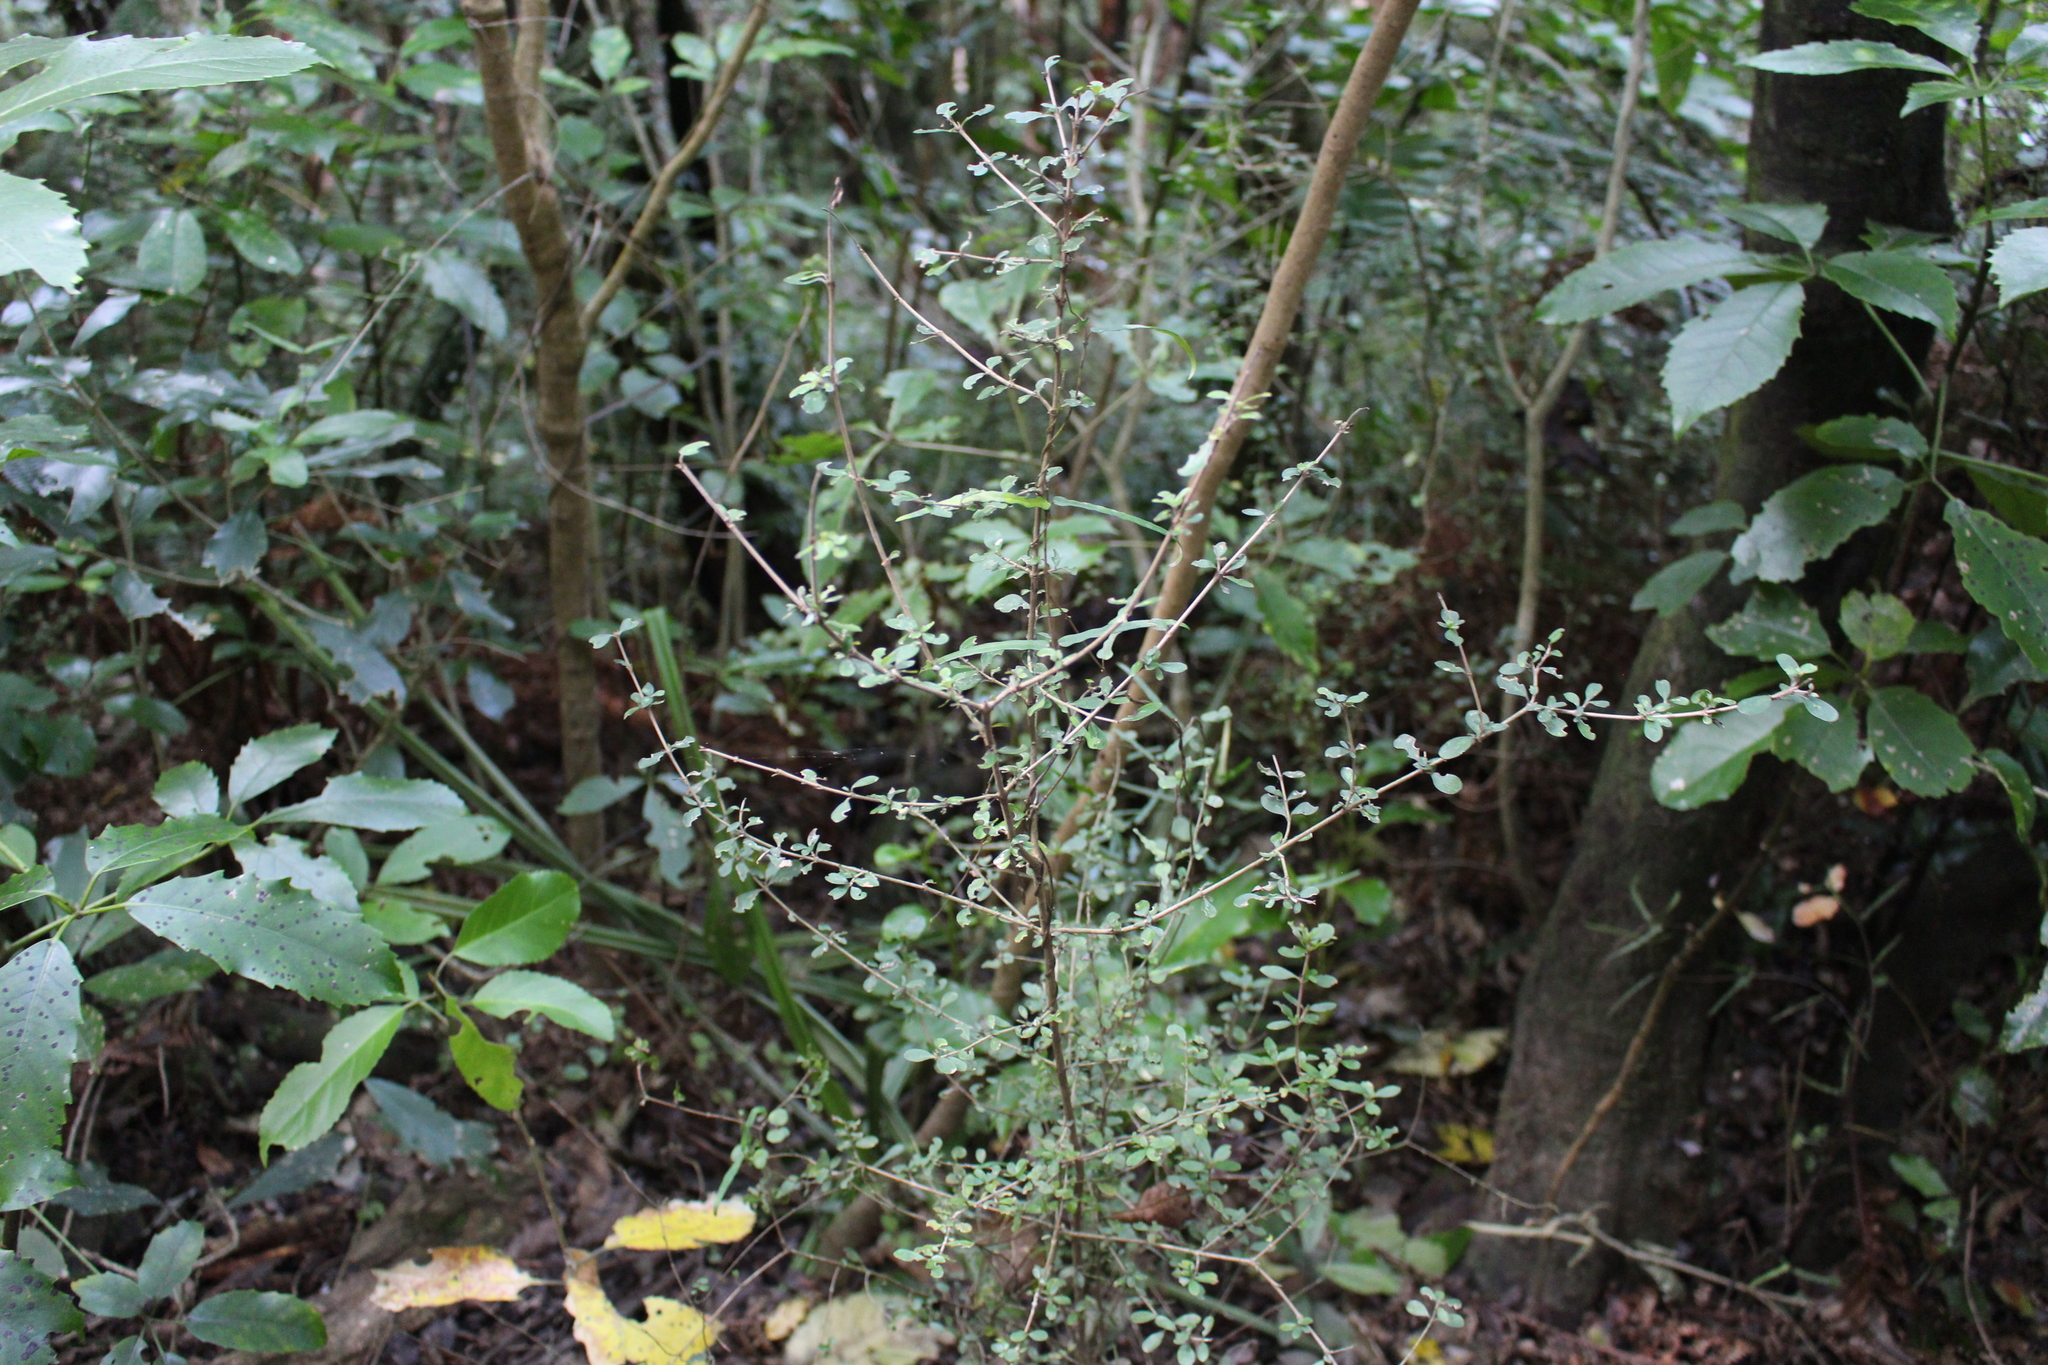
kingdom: Plantae
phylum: Tracheophyta
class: Magnoliopsida
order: Gentianales
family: Rubiaceae
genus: Coprosma
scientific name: Coprosma rigida
